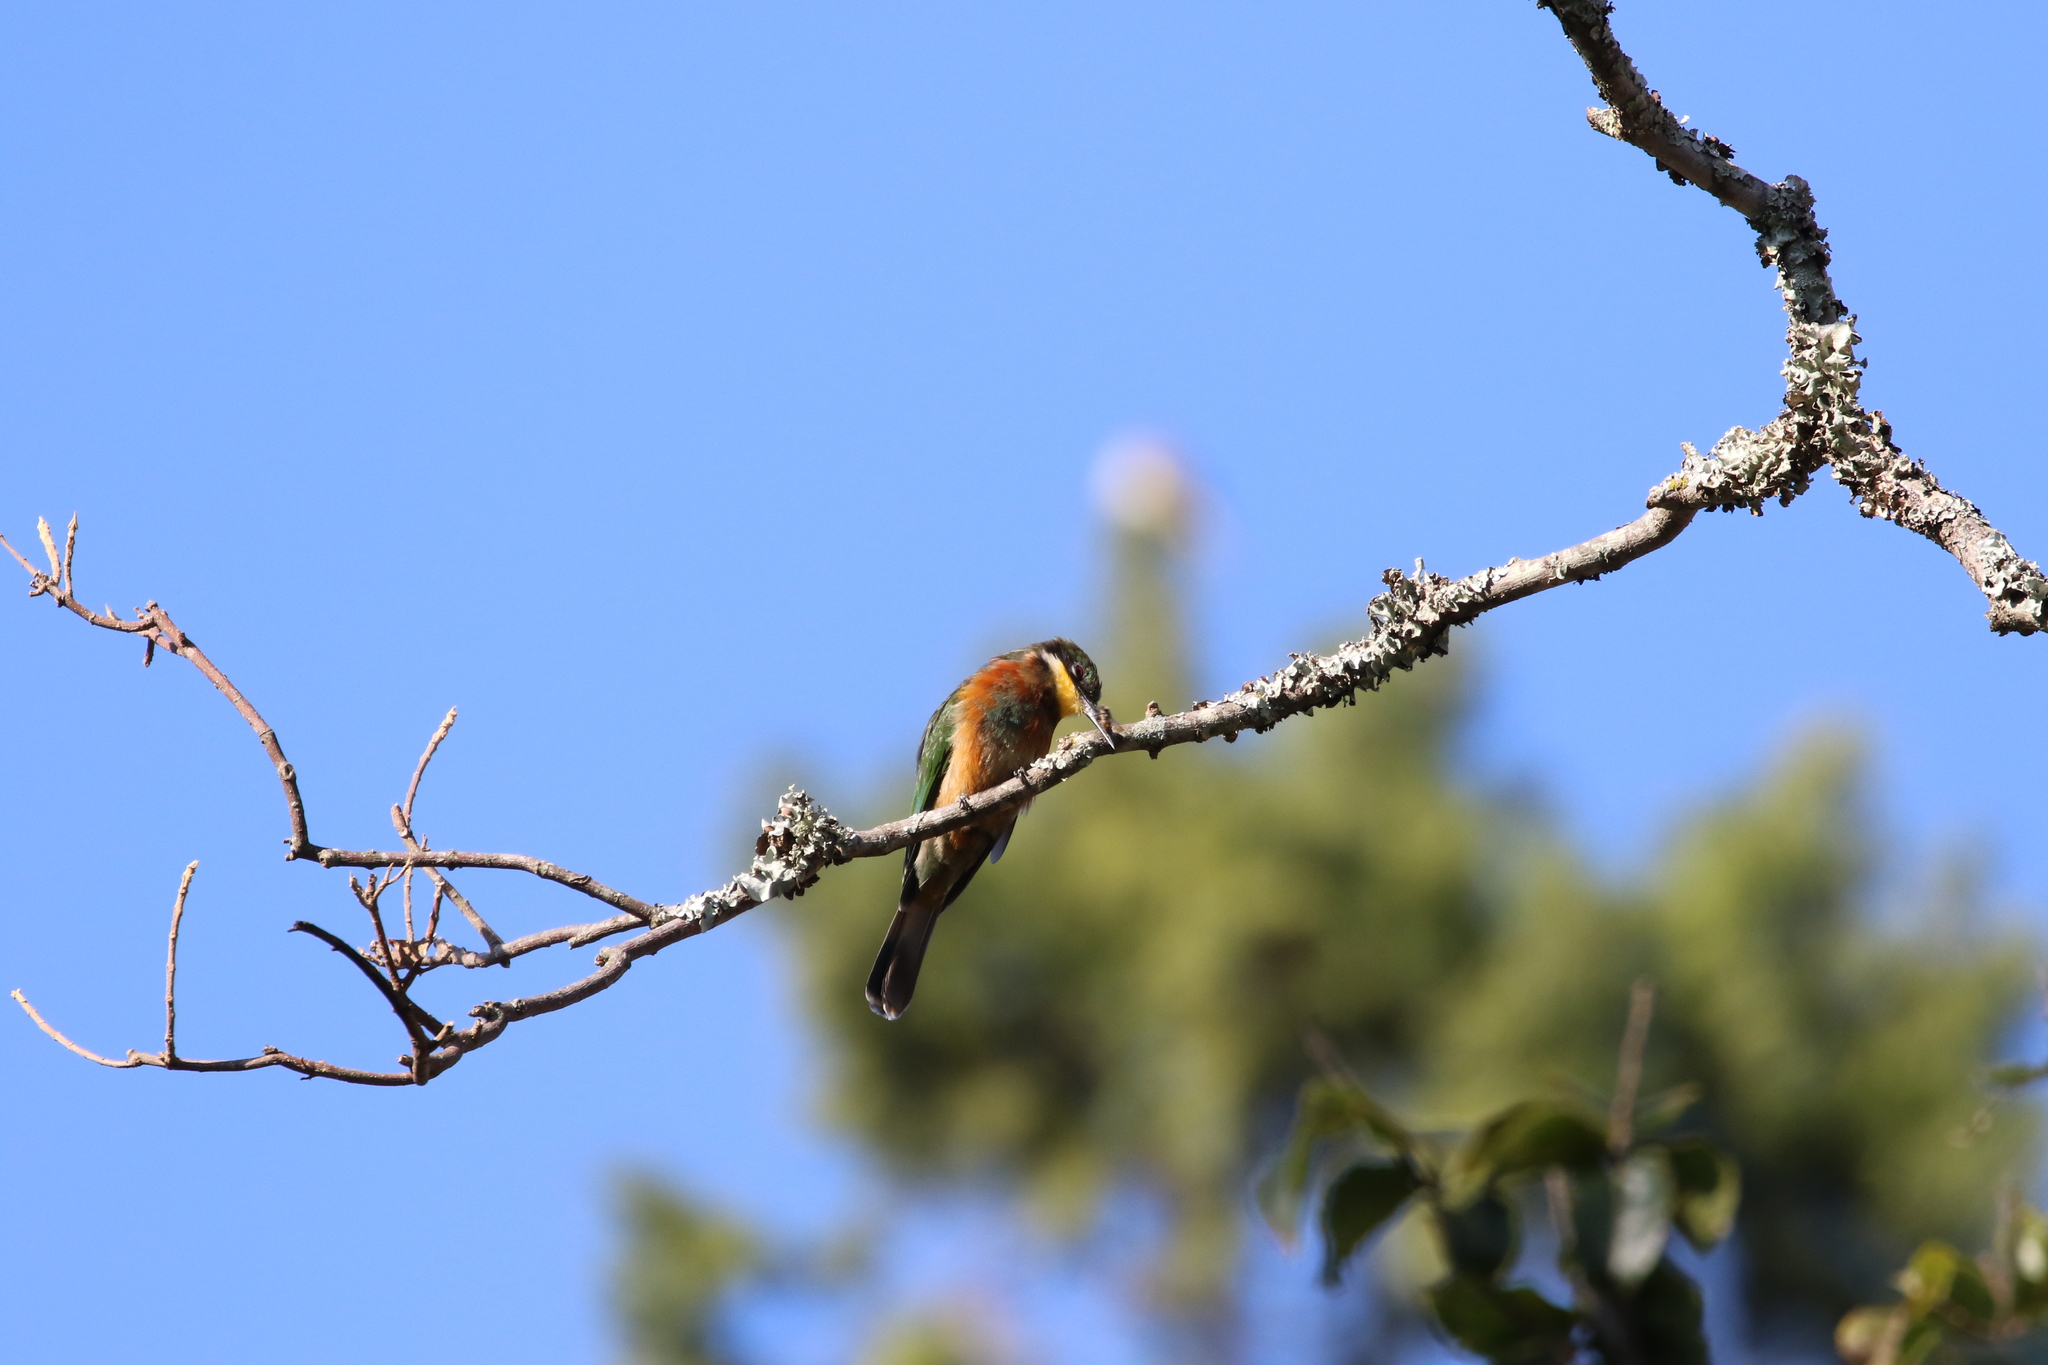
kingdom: Animalia
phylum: Chordata
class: Aves
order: Coraciiformes
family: Meropidae
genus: Merops
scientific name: Merops oreobates
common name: Cinnamon-chested bee-eater
